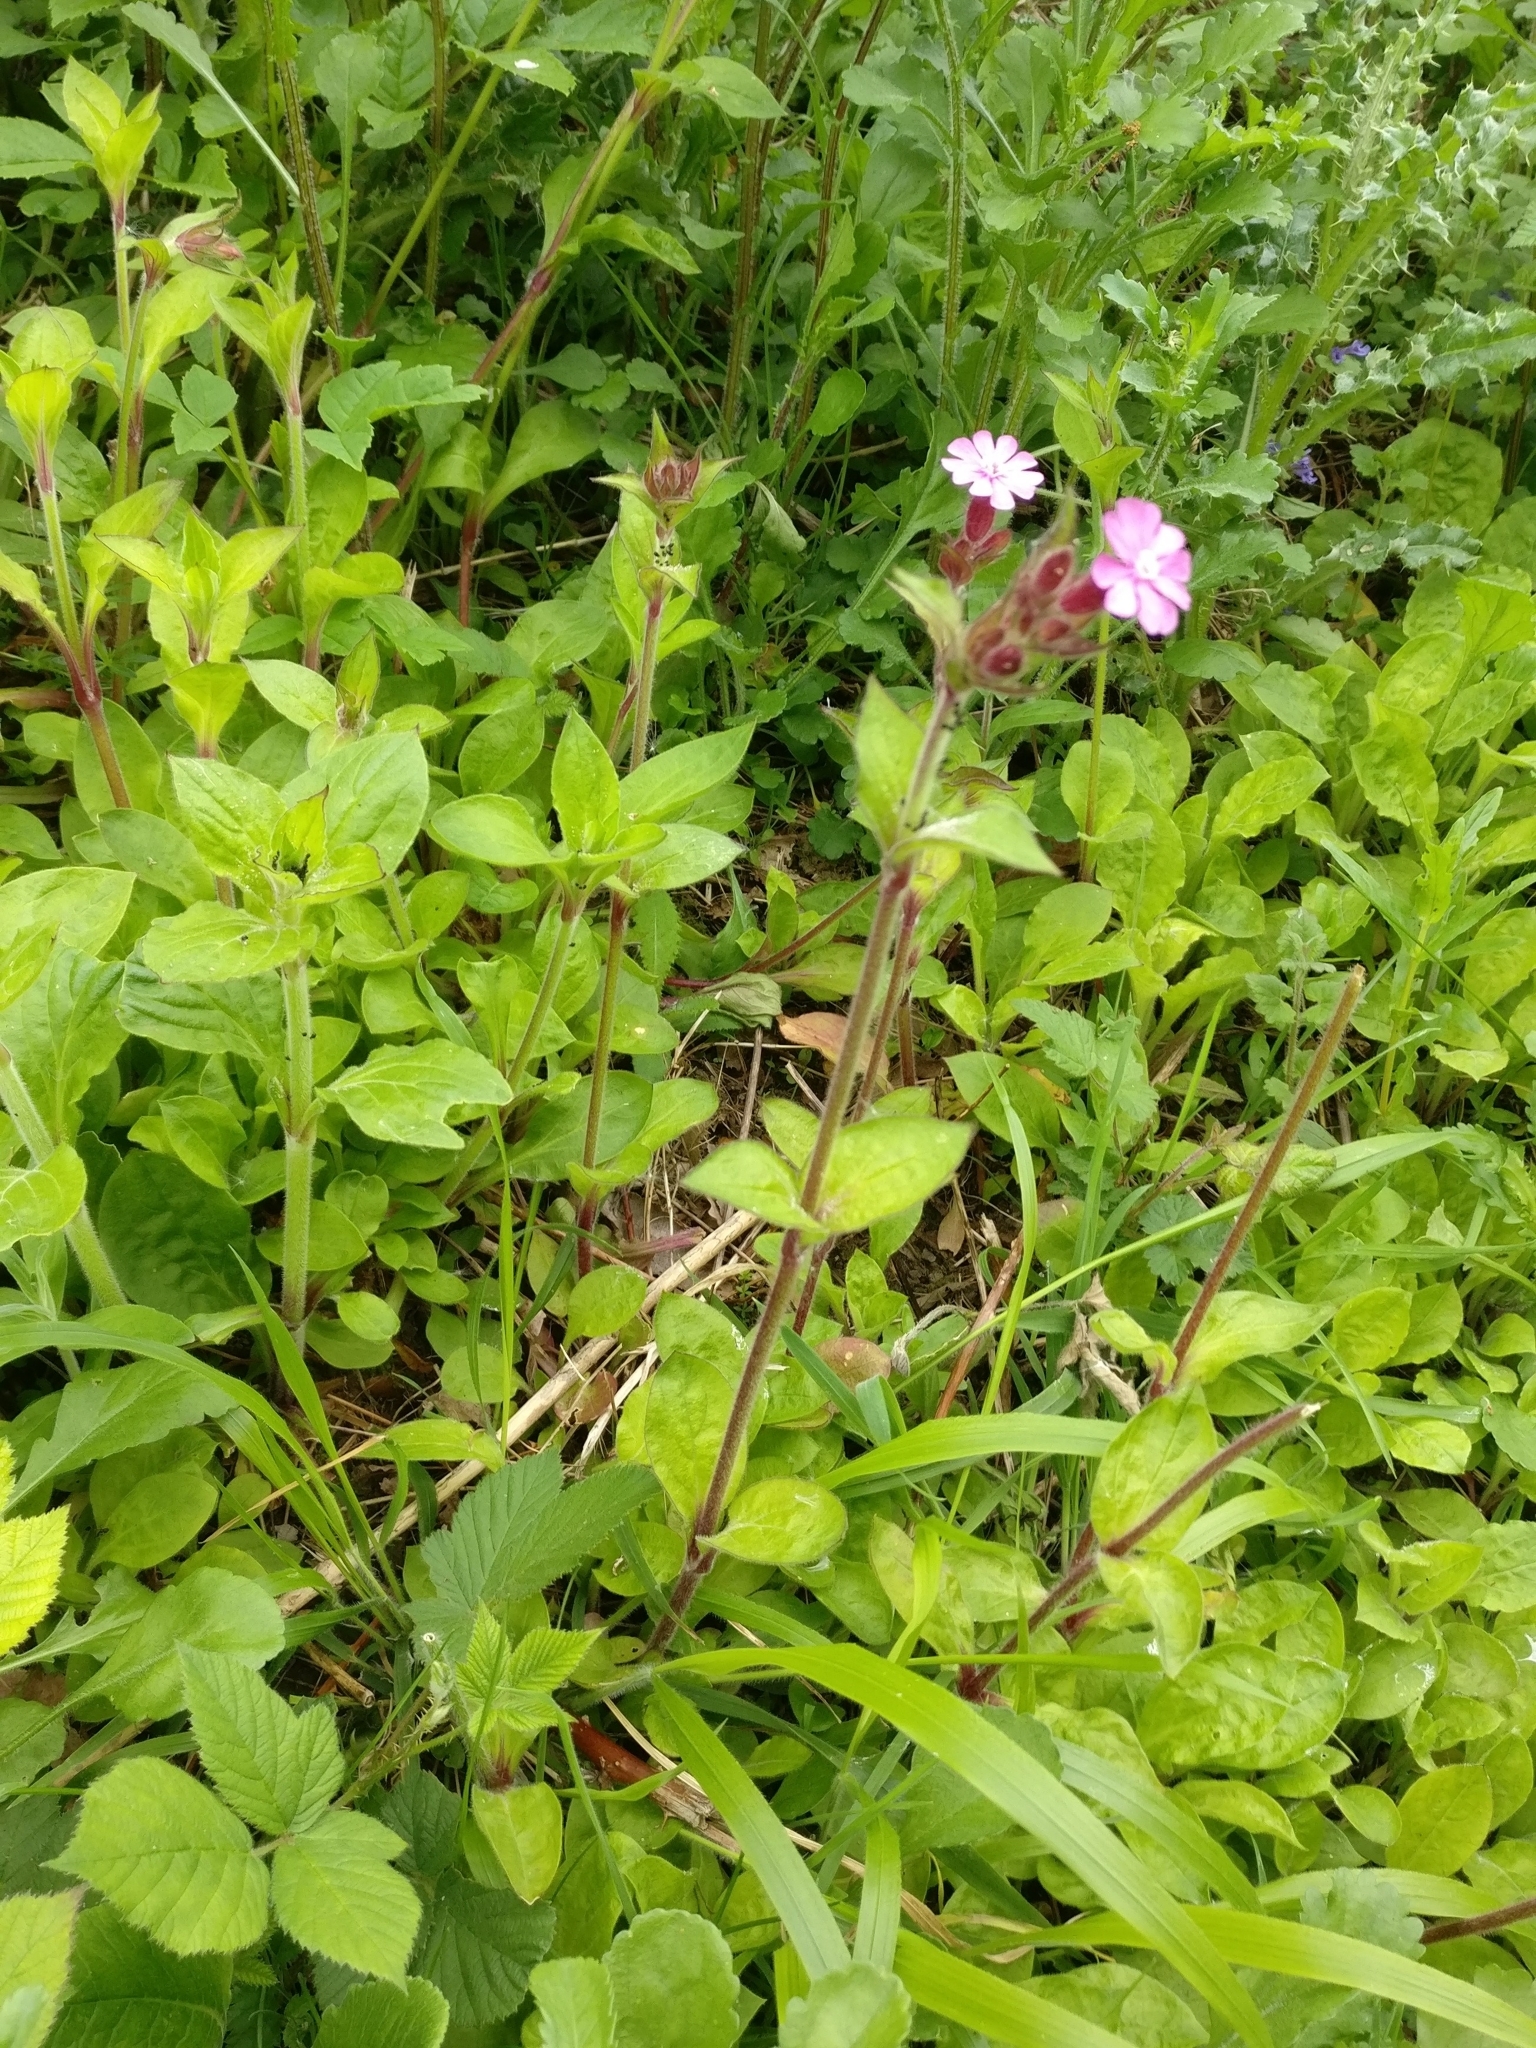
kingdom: Plantae
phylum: Tracheophyta
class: Magnoliopsida
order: Caryophyllales
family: Caryophyllaceae
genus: Silene
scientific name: Silene dioica
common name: Red campion
